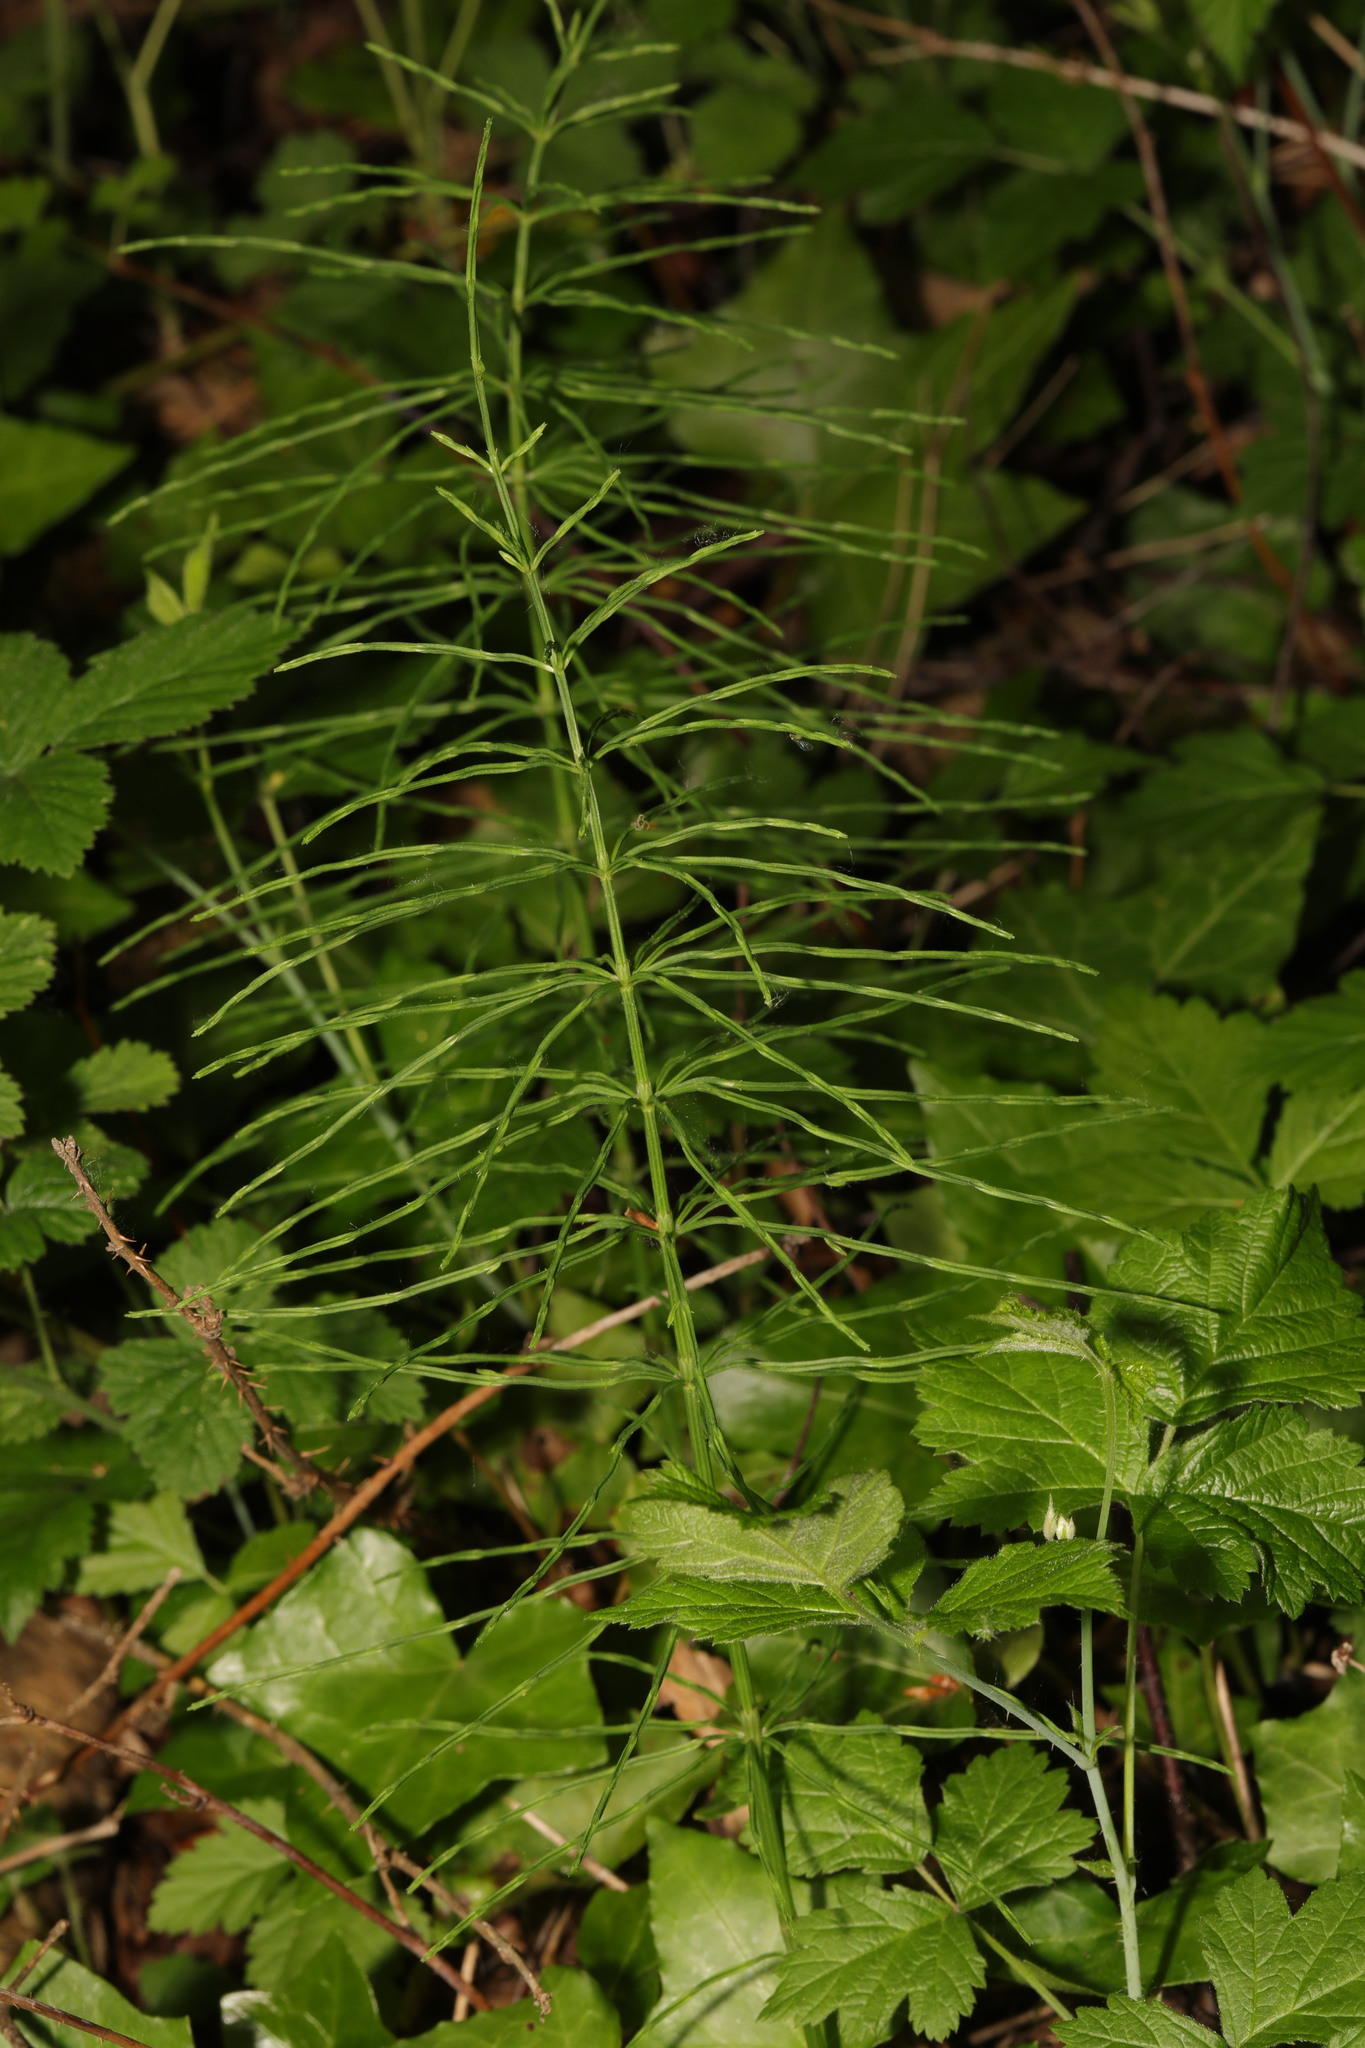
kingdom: Plantae
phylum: Tracheophyta
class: Polypodiopsida
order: Equisetales
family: Equisetaceae
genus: Equisetum
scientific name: Equisetum arvense
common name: Field horsetail
